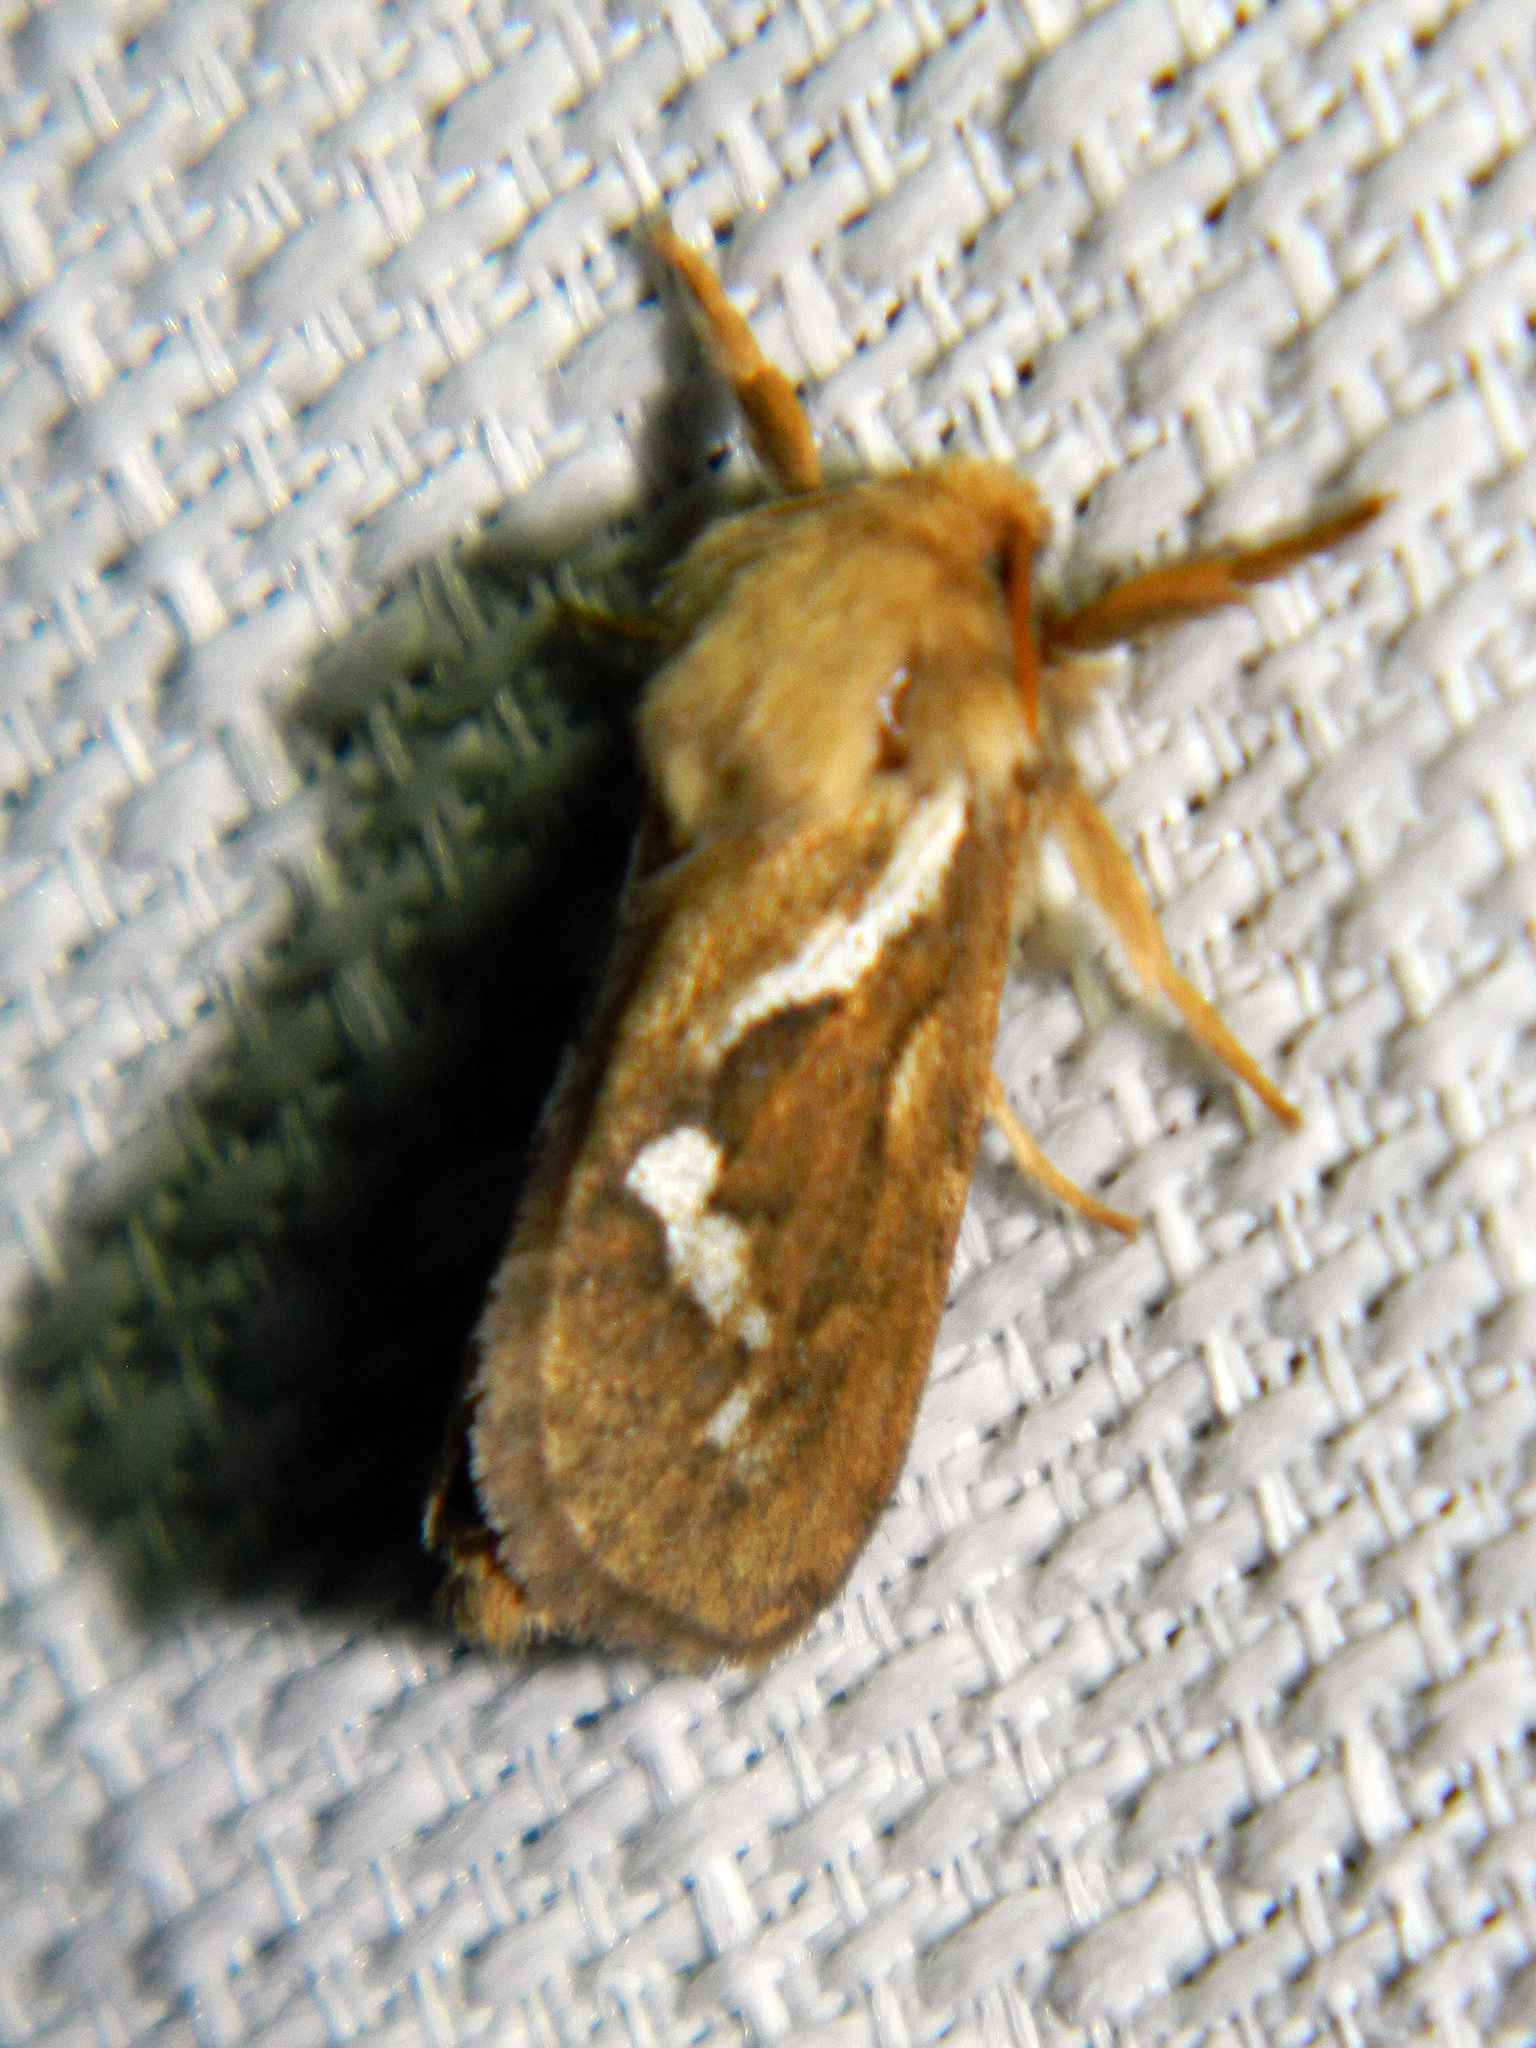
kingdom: Animalia
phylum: Arthropoda
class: Insecta
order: Lepidoptera
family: Hepialidae
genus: Korscheltellus
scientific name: Korscheltellus lupulina
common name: Common swift
